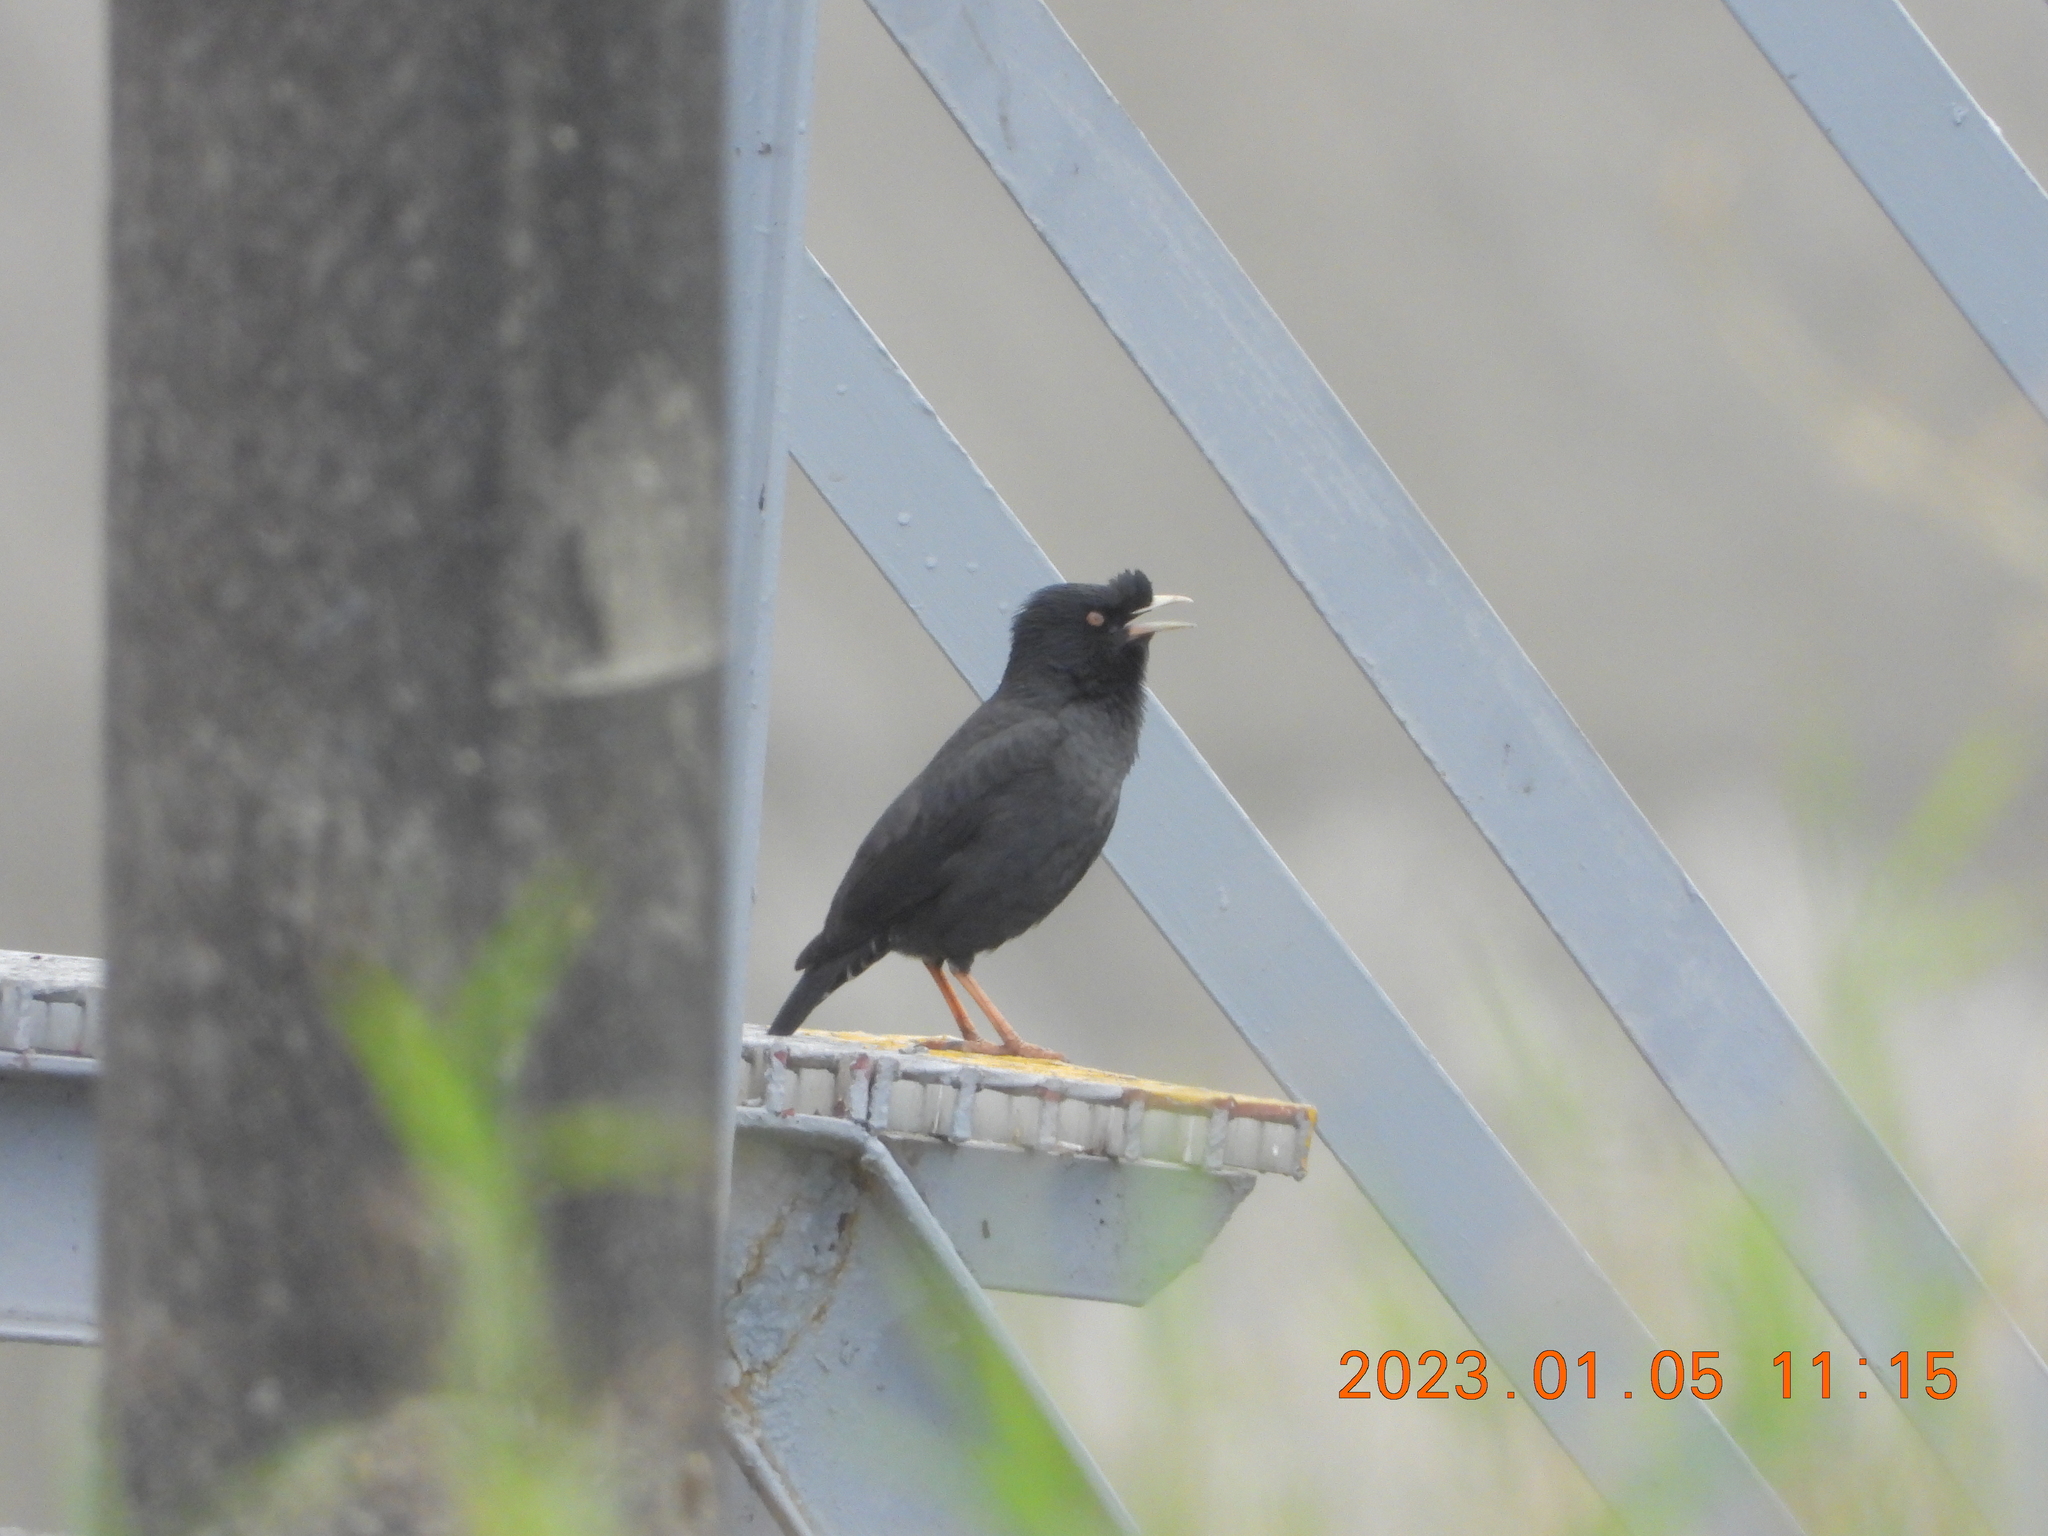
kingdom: Animalia
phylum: Chordata
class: Aves
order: Passeriformes
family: Sturnidae
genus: Acridotheres
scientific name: Acridotheres cristatellus
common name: Crested myna
